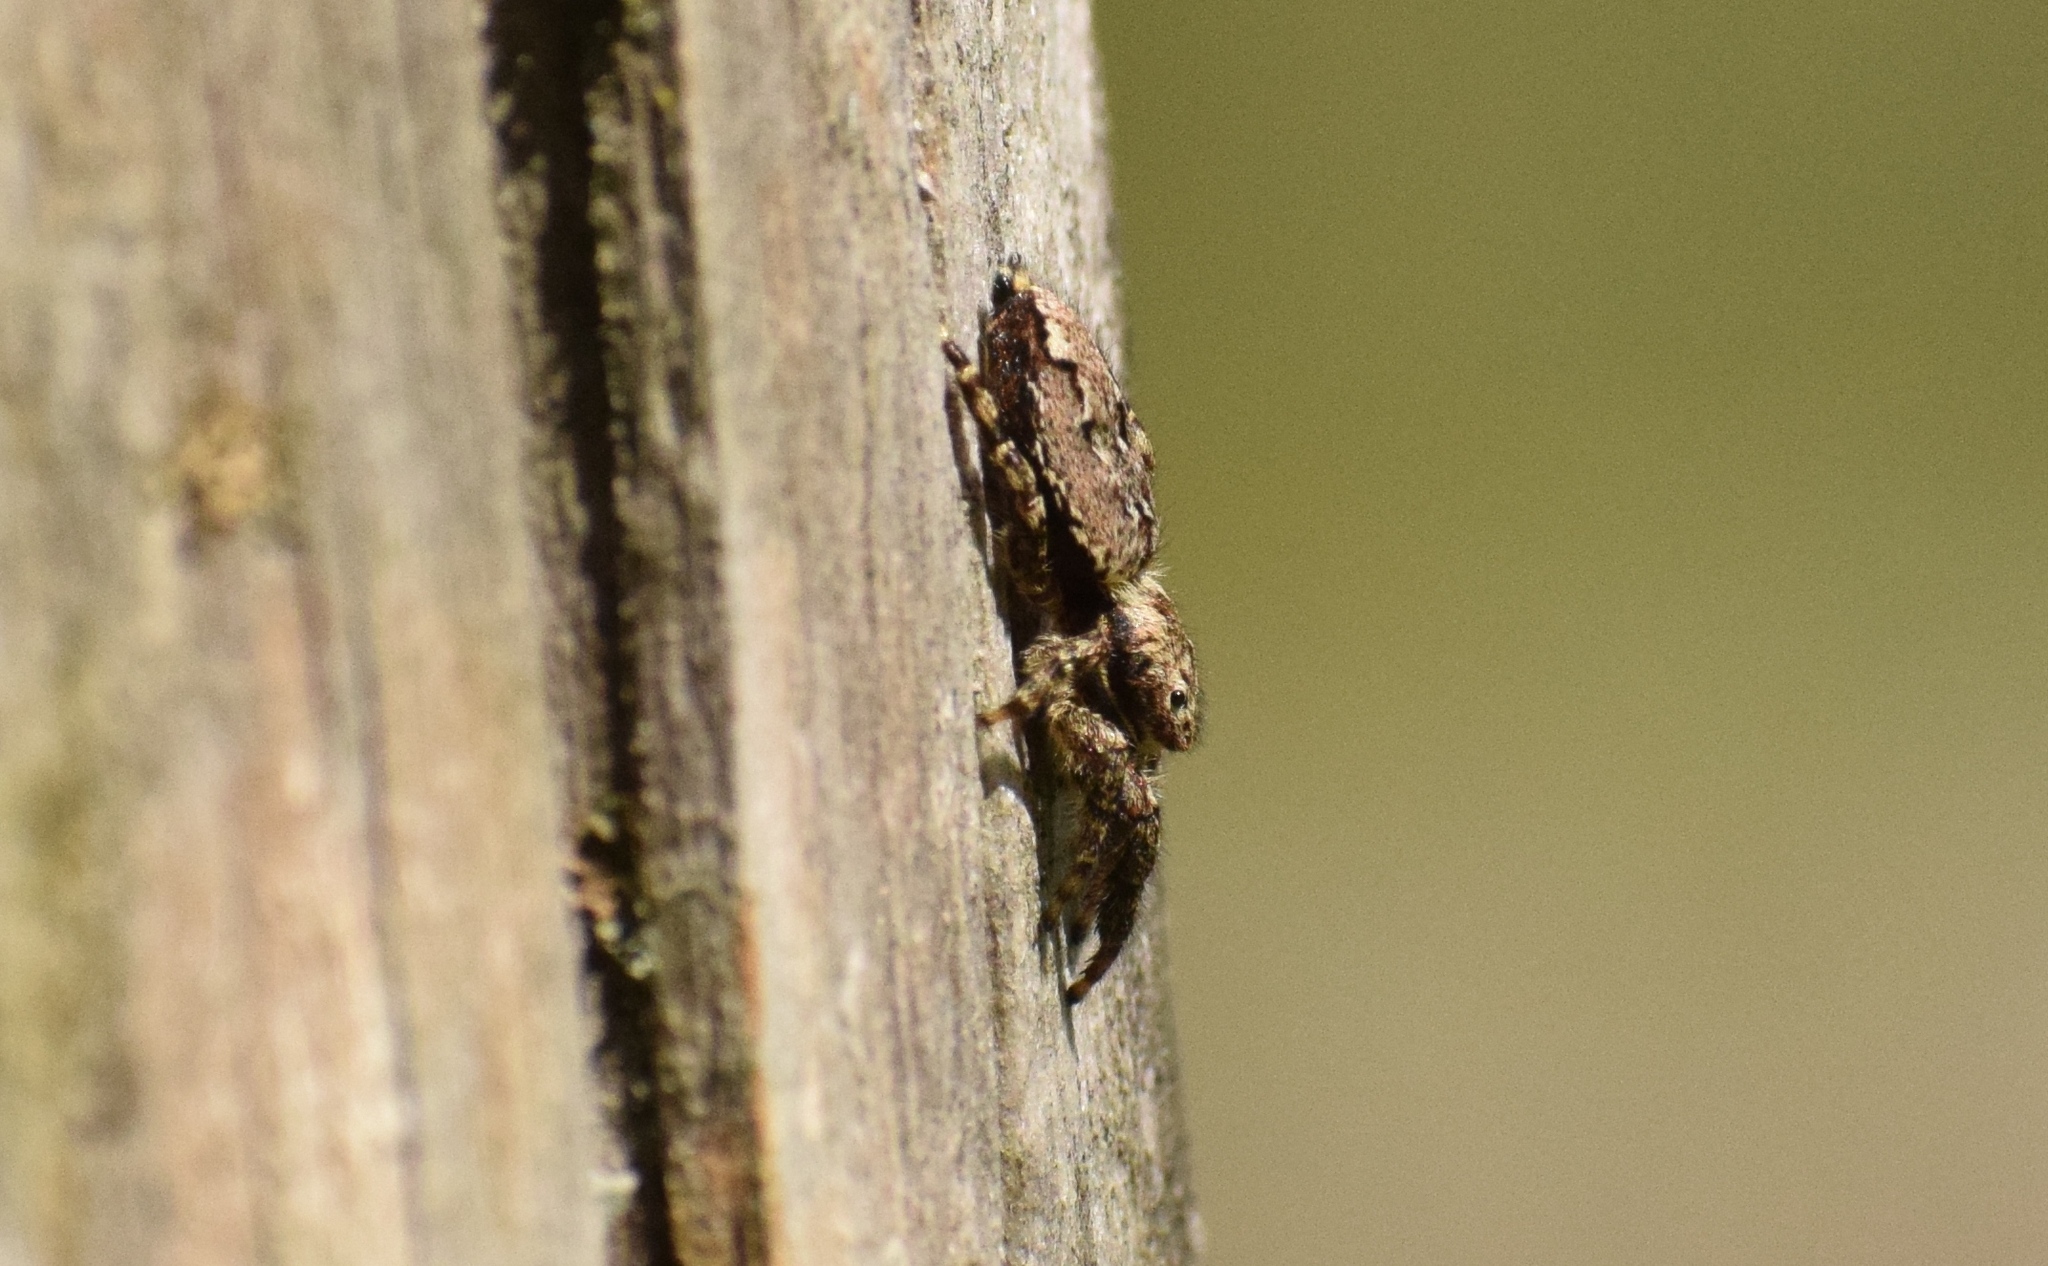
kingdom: Animalia
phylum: Arthropoda
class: Arachnida
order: Araneae
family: Salticidae
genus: Marpissa
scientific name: Marpissa muscosa
